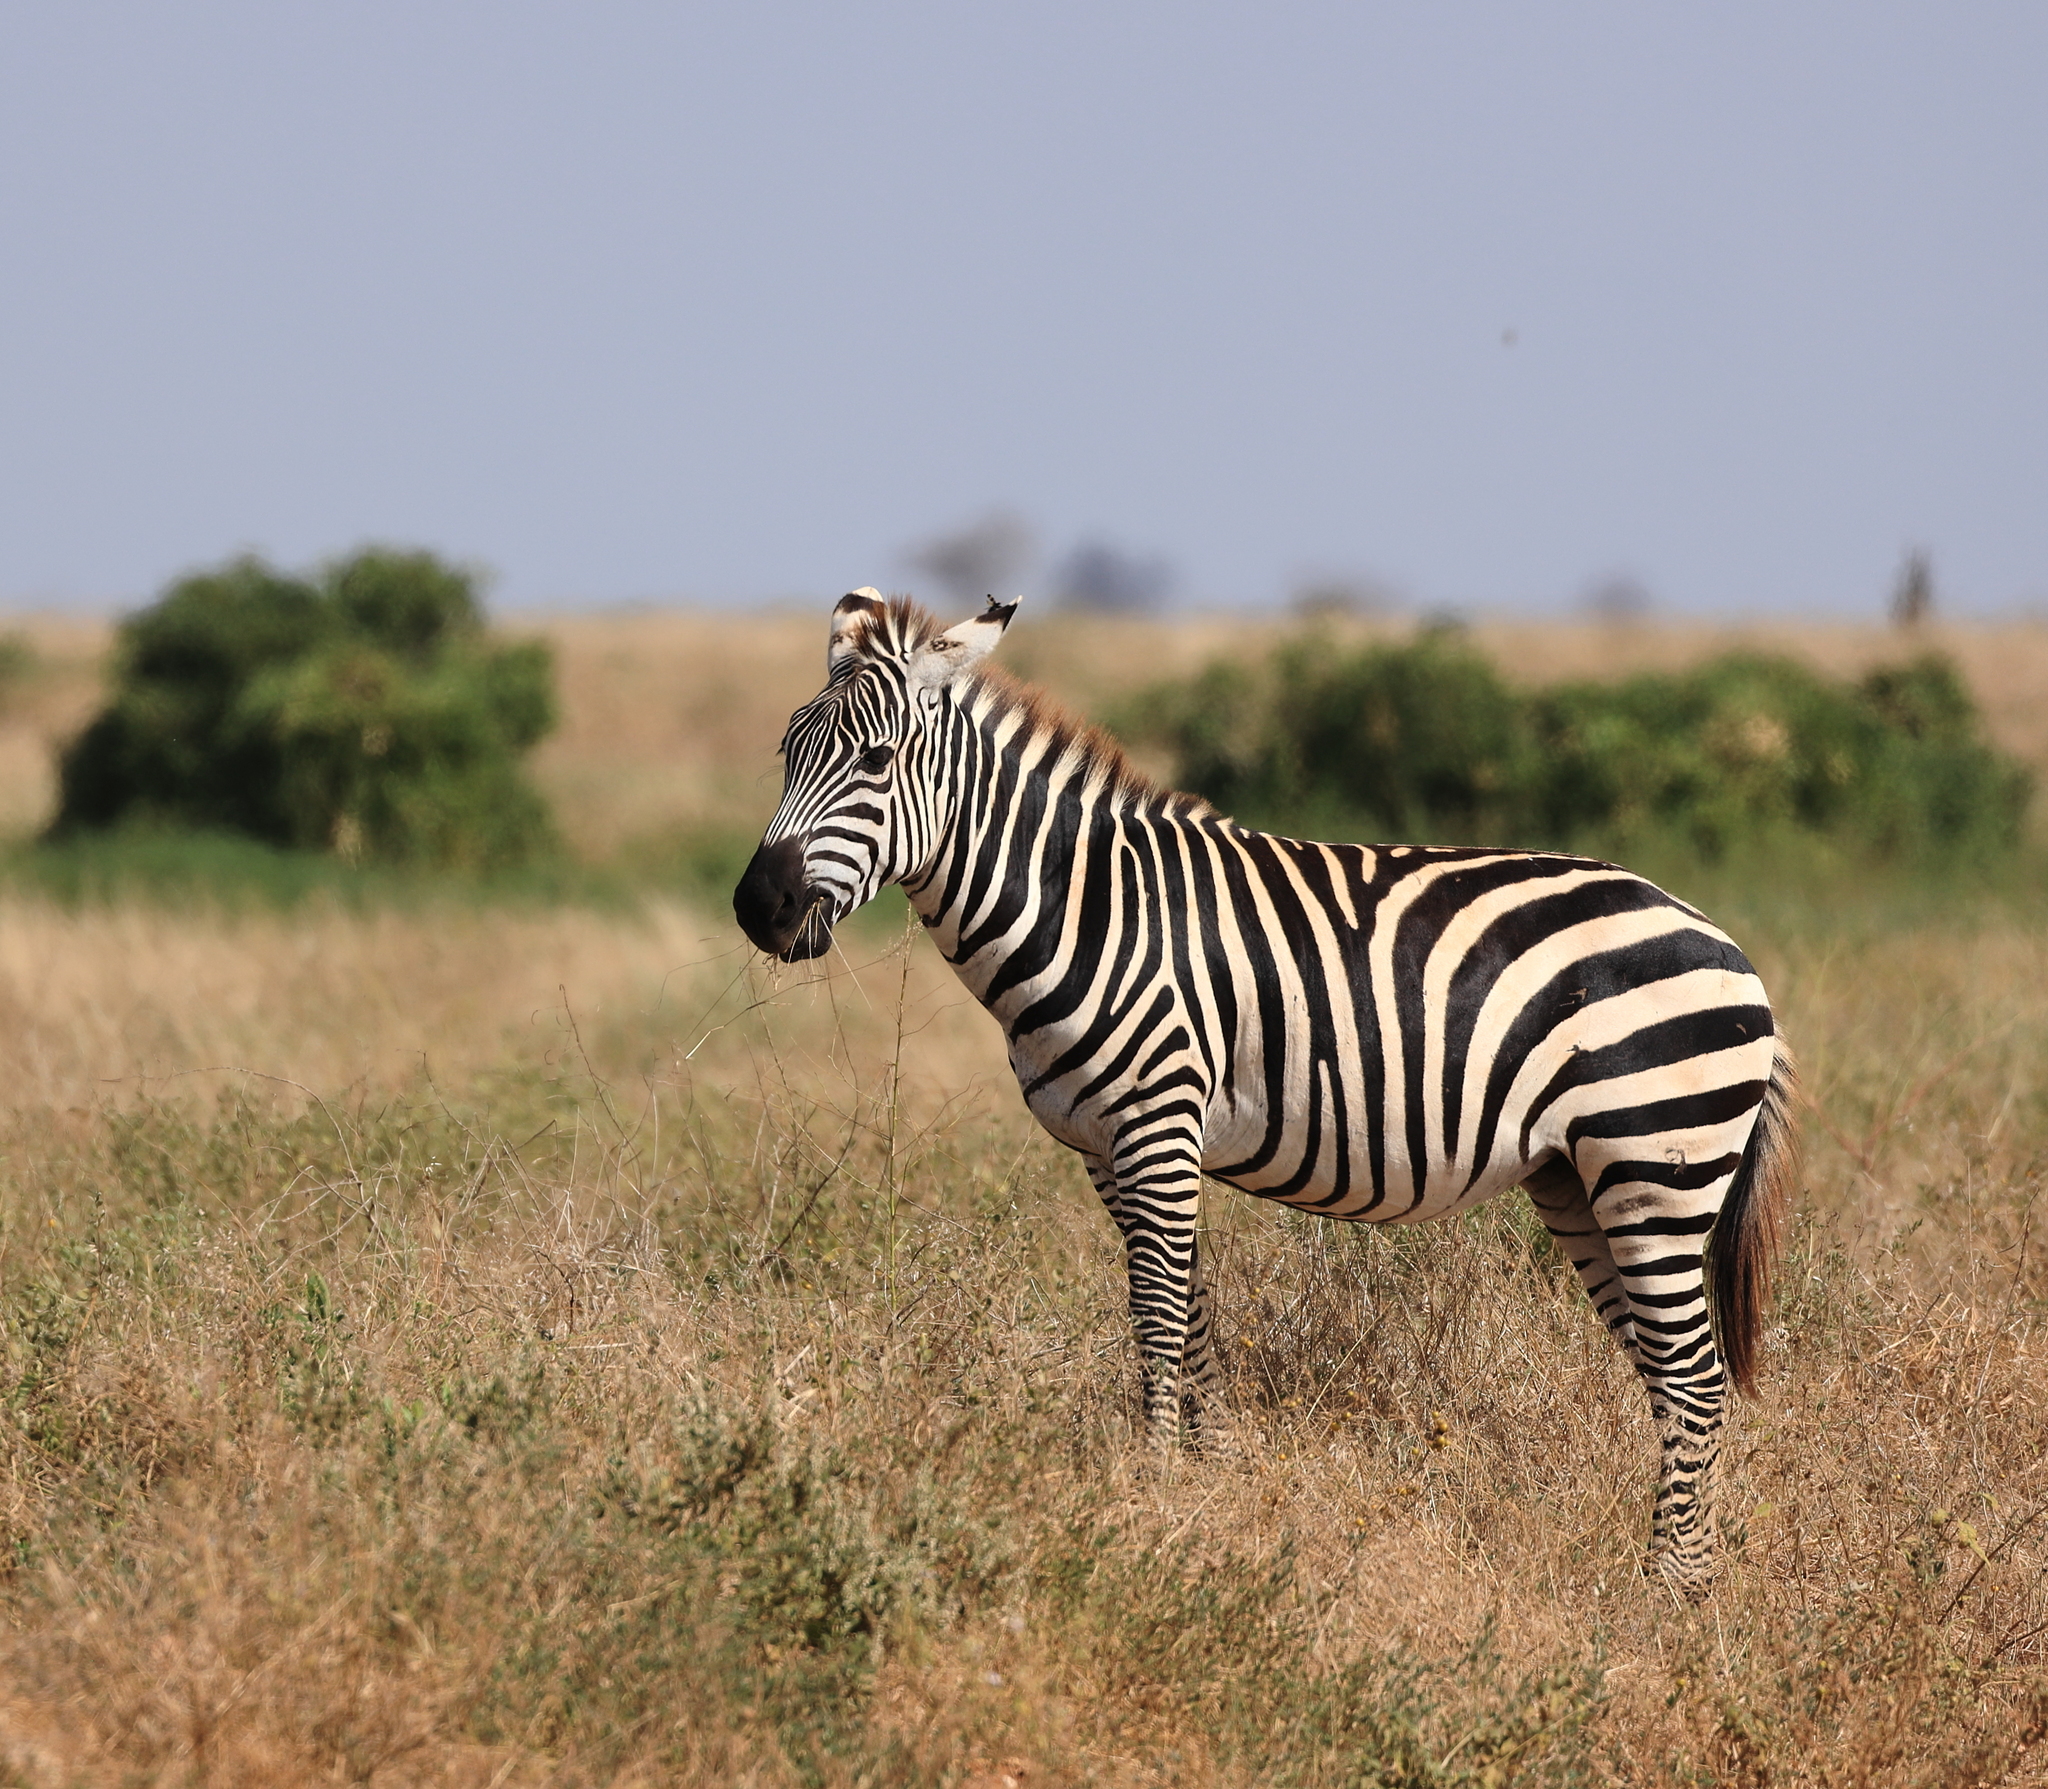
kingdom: Animalia
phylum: Chordata
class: Mammalia
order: Perissodactyla
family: Equidae
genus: Equus
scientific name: Equus quagga
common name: Plains zebra
